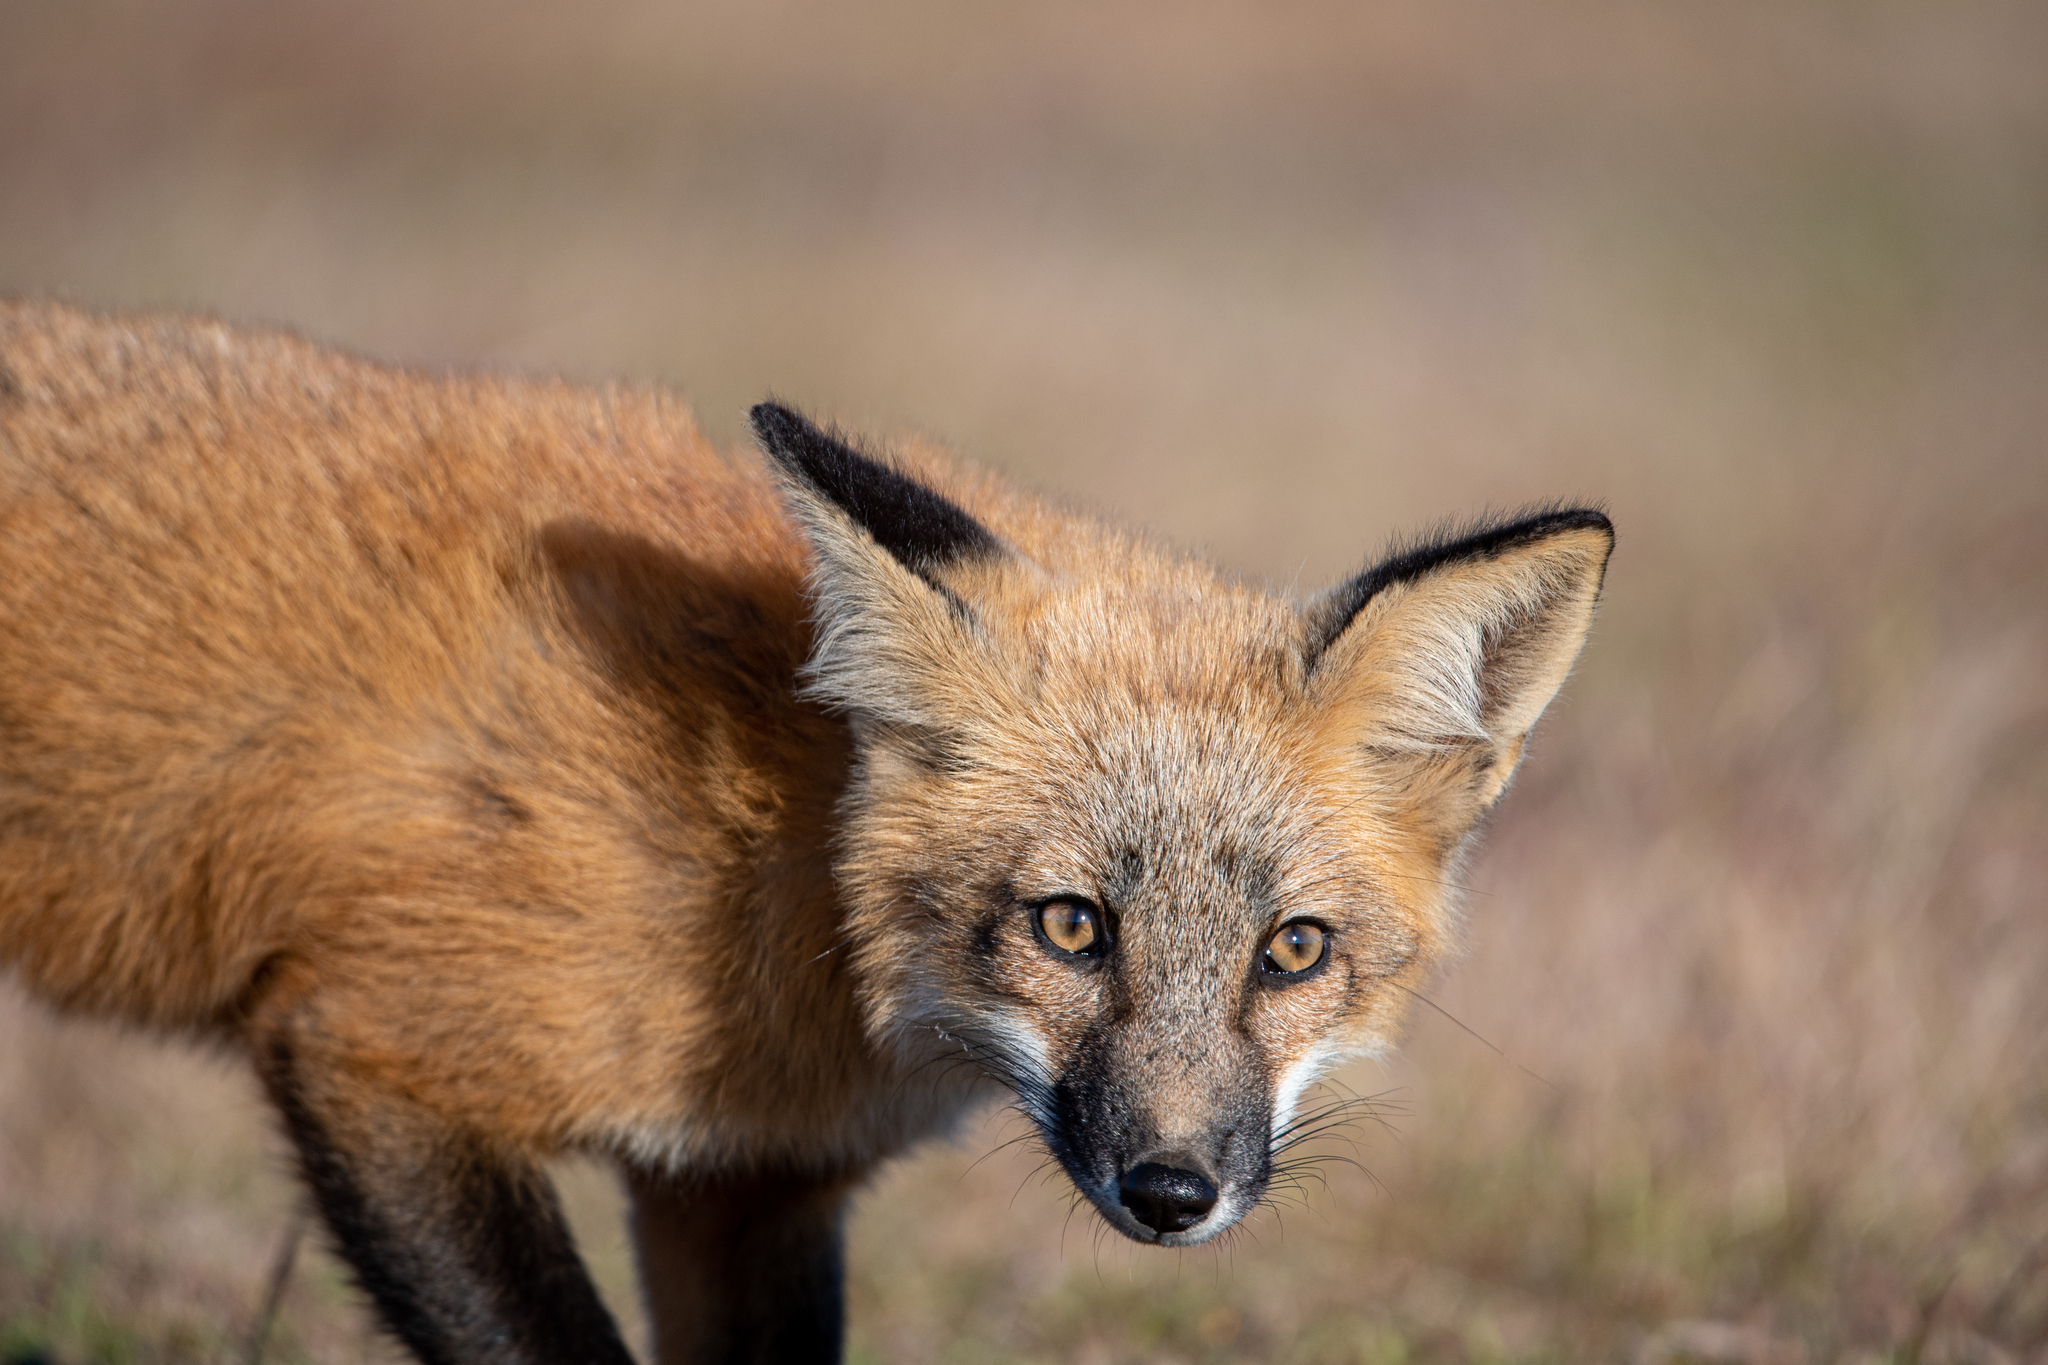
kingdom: Animalia
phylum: Chordata
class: Mammalia
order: Carnivora
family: Canidae
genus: Vulpes
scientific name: Vulpes vulpes
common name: Red fox
